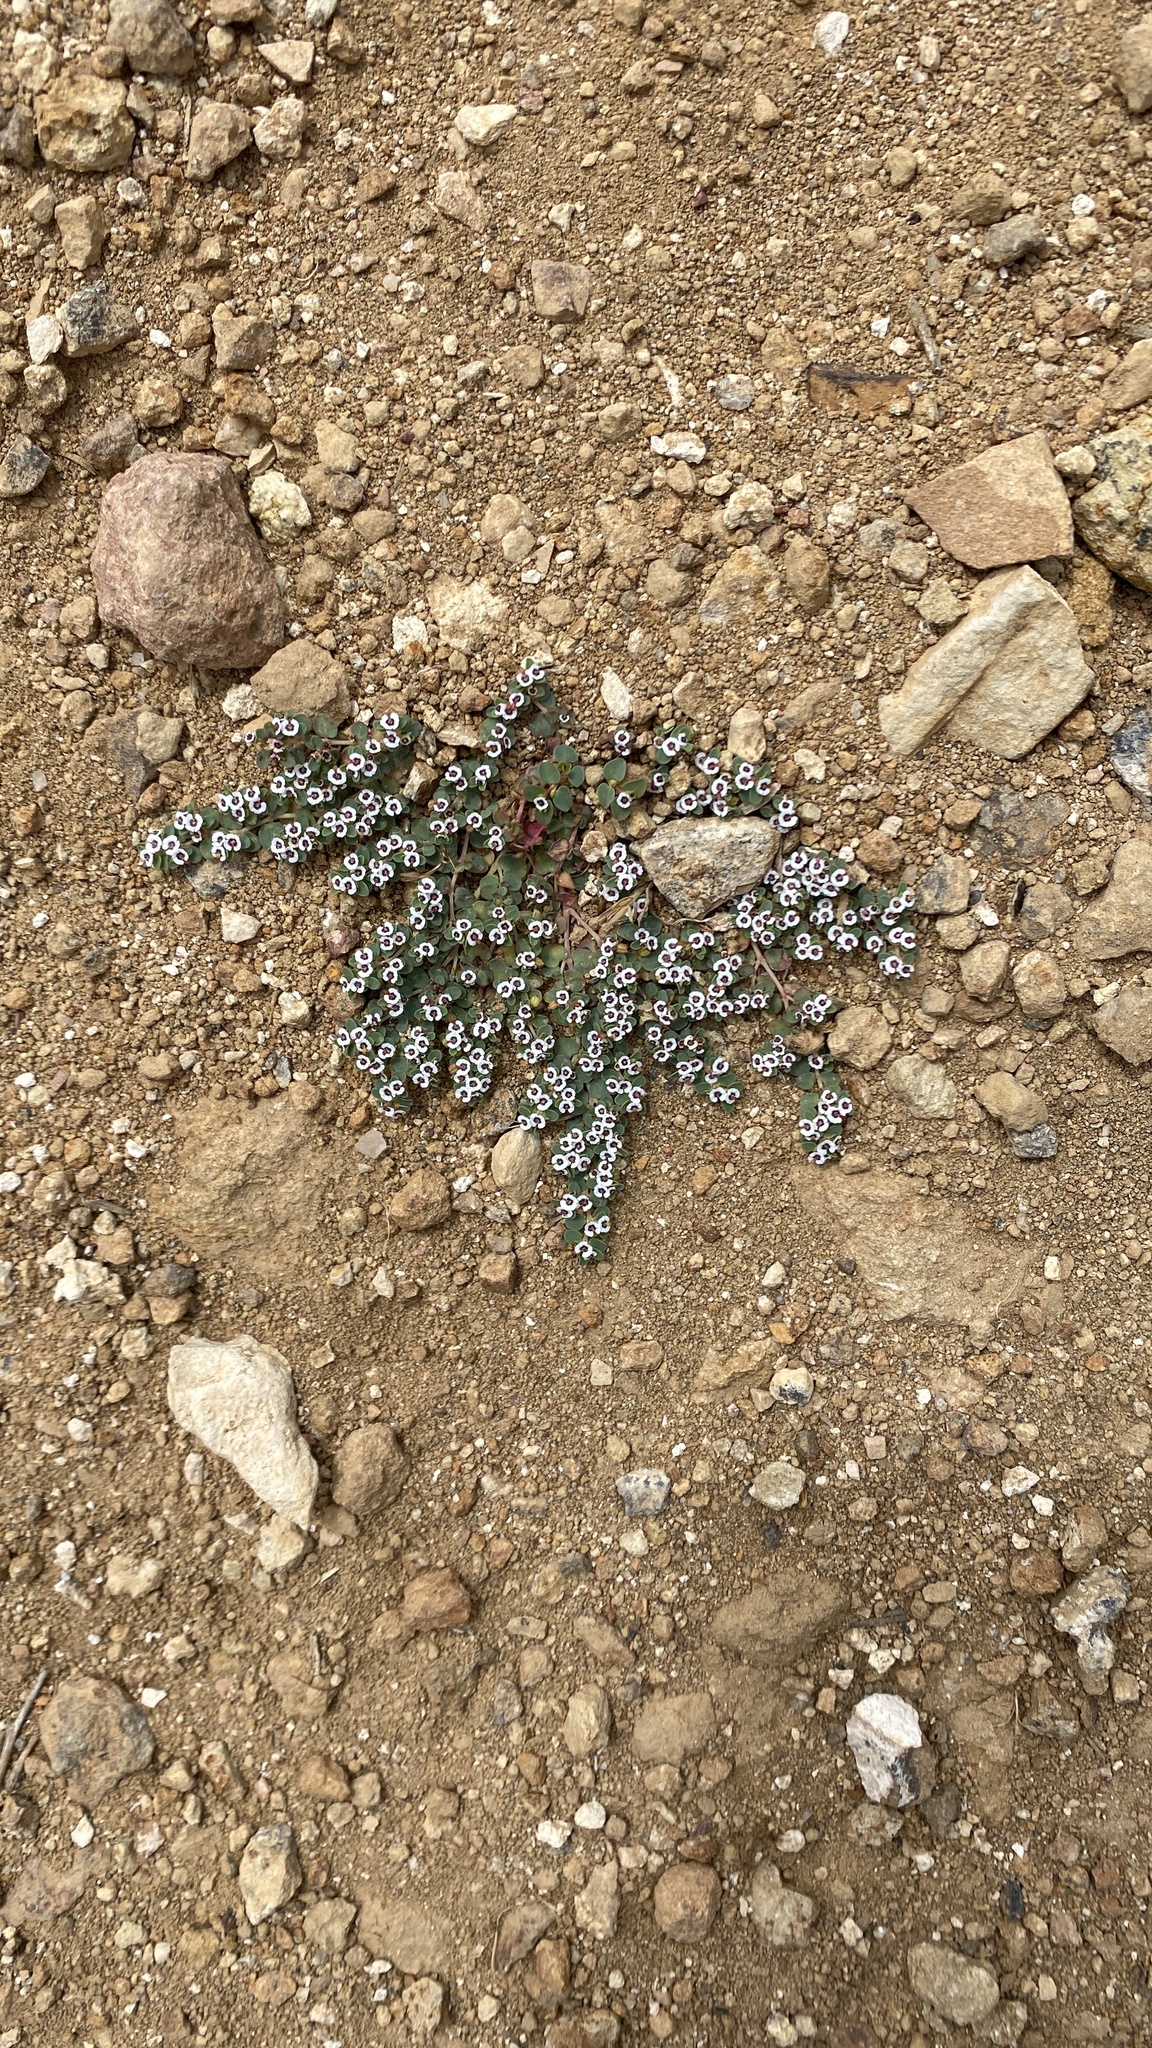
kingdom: Plantae
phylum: Tracheophyta
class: Magnoliopsida
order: Malpighiales
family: Euphorbiaceae
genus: Euphorbia
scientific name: Euphorbia polycarpa
